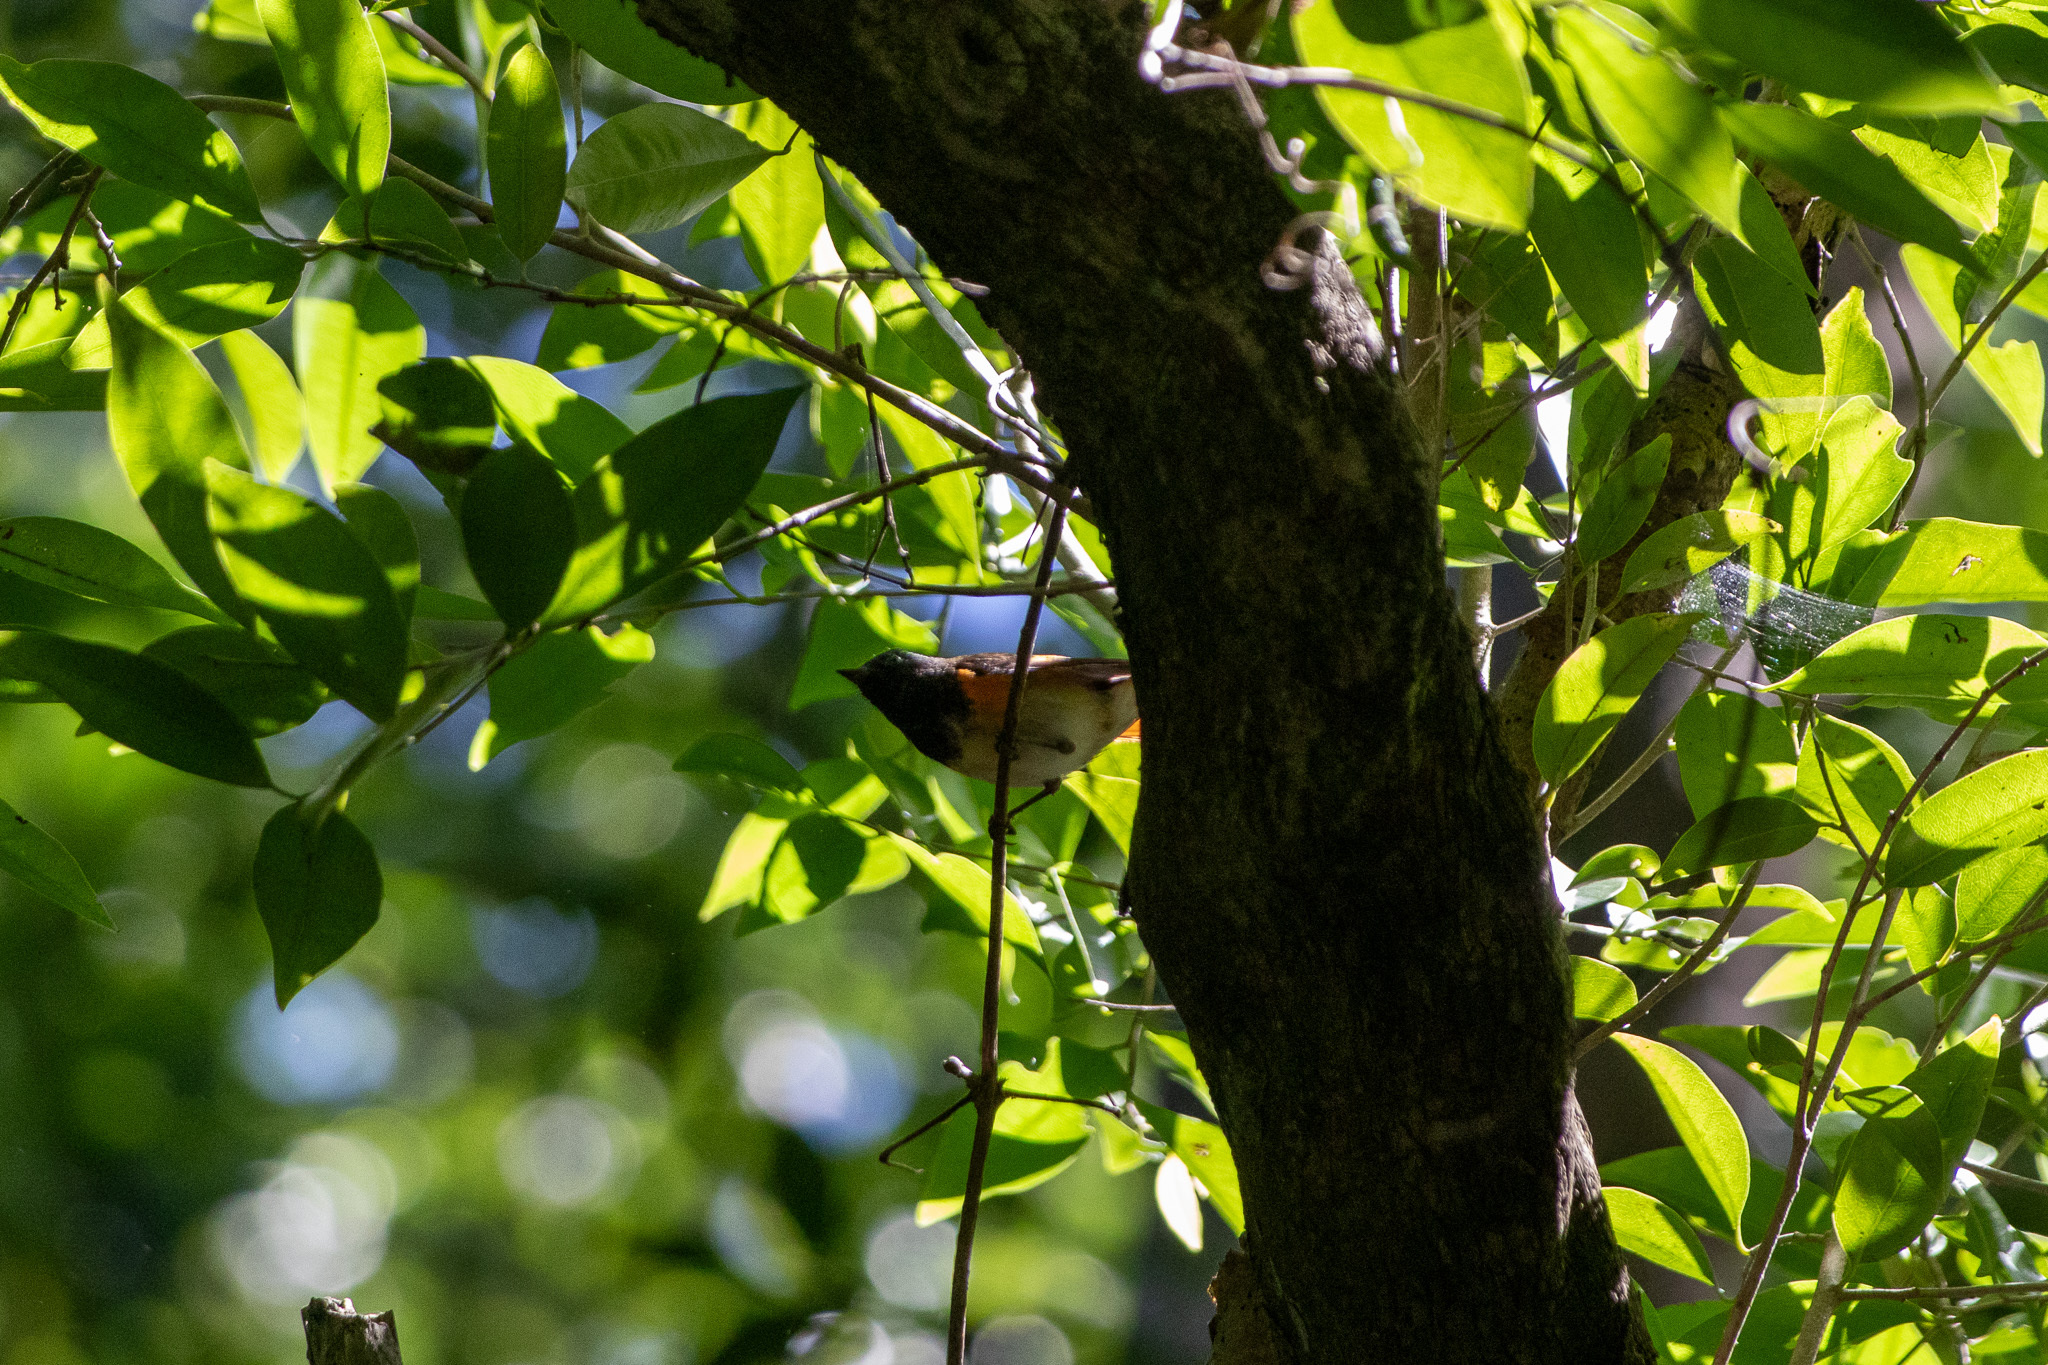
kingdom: Animalia
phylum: Chordata
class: Aves
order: Passeriformes
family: Parulidae
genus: Setophaga
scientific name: Setophaga ruticilla
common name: American redstart
